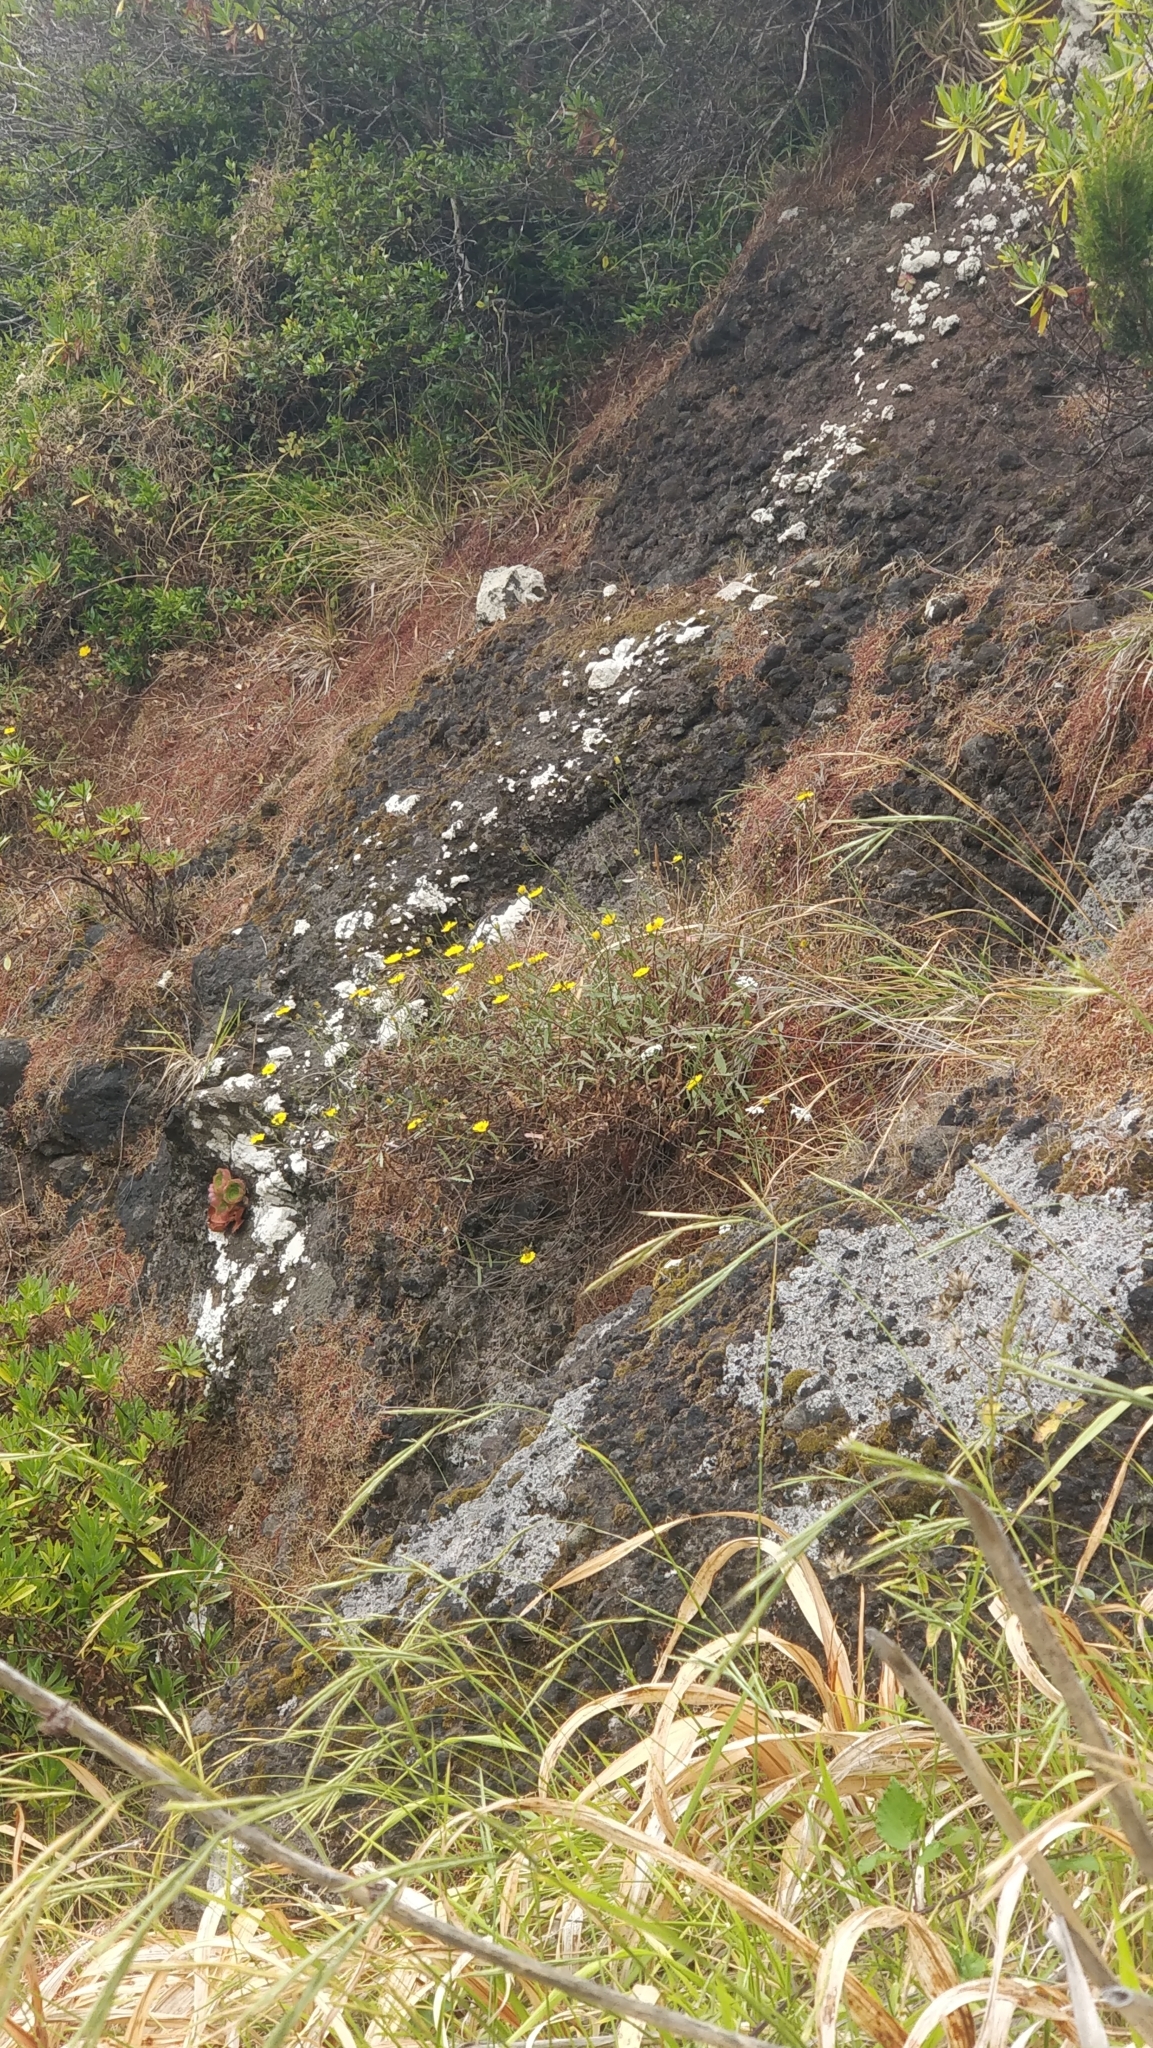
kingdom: Plantae
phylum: Tracheophyta
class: Magnoliopsida
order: Asterales
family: Asteraceae
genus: Tolpis
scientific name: Tolpis succulenta
